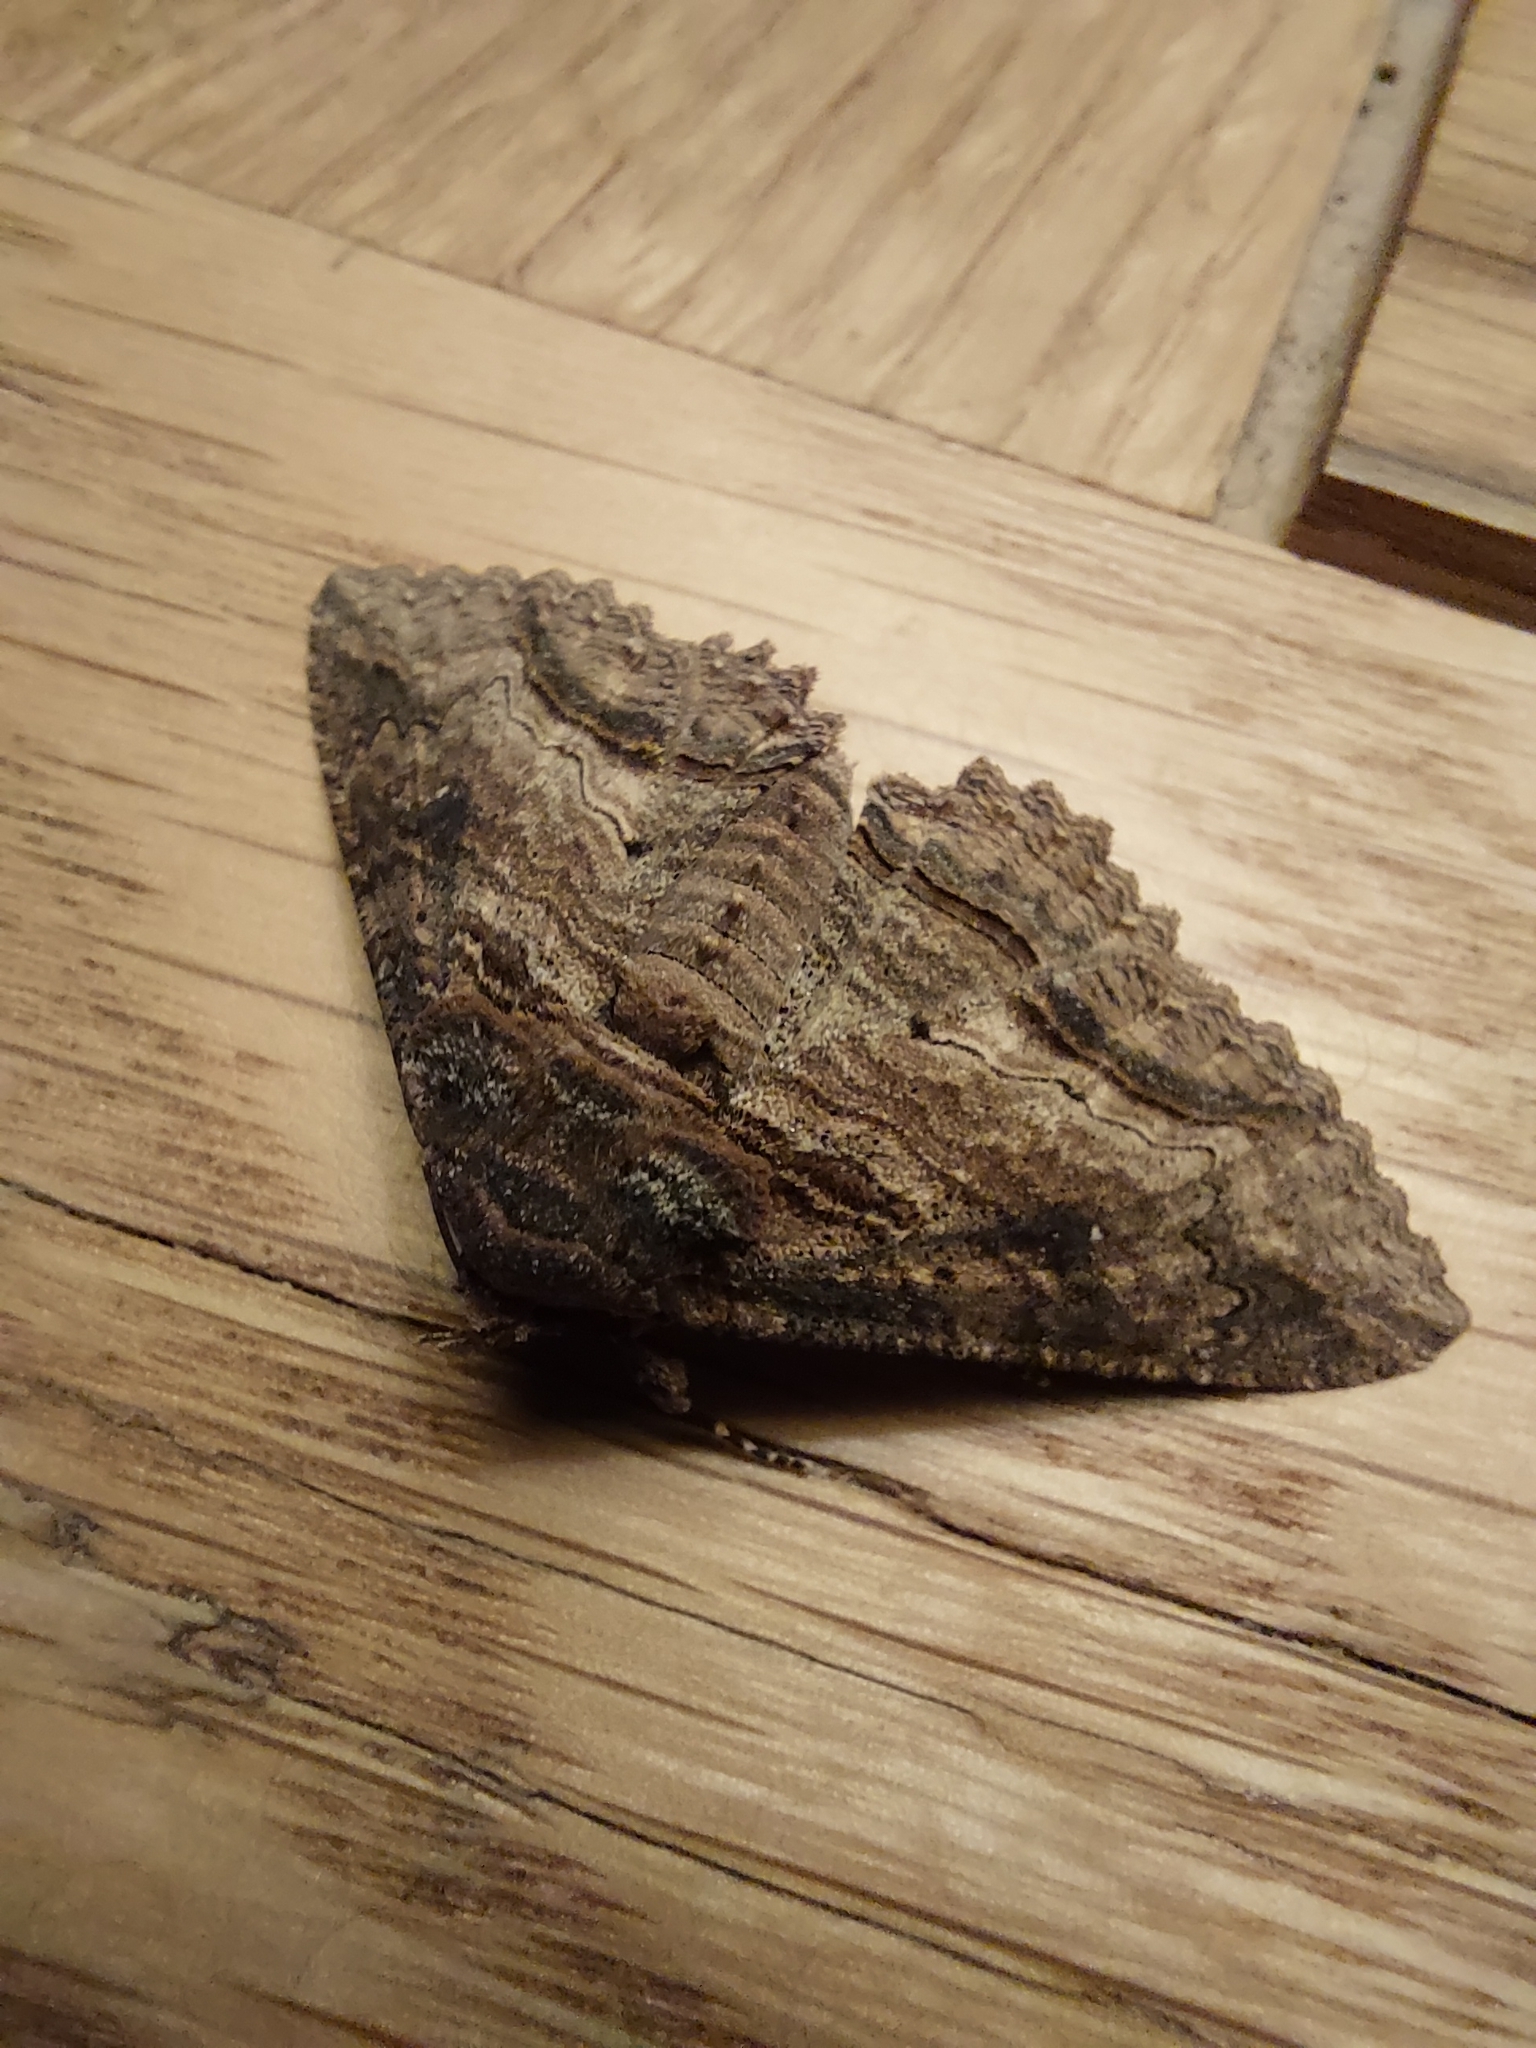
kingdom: Animalia
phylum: Arthropoda
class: Insecta
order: Lepidoptera
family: Erebidae
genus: Zale
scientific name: Zale lunata
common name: Lunate zale moth
